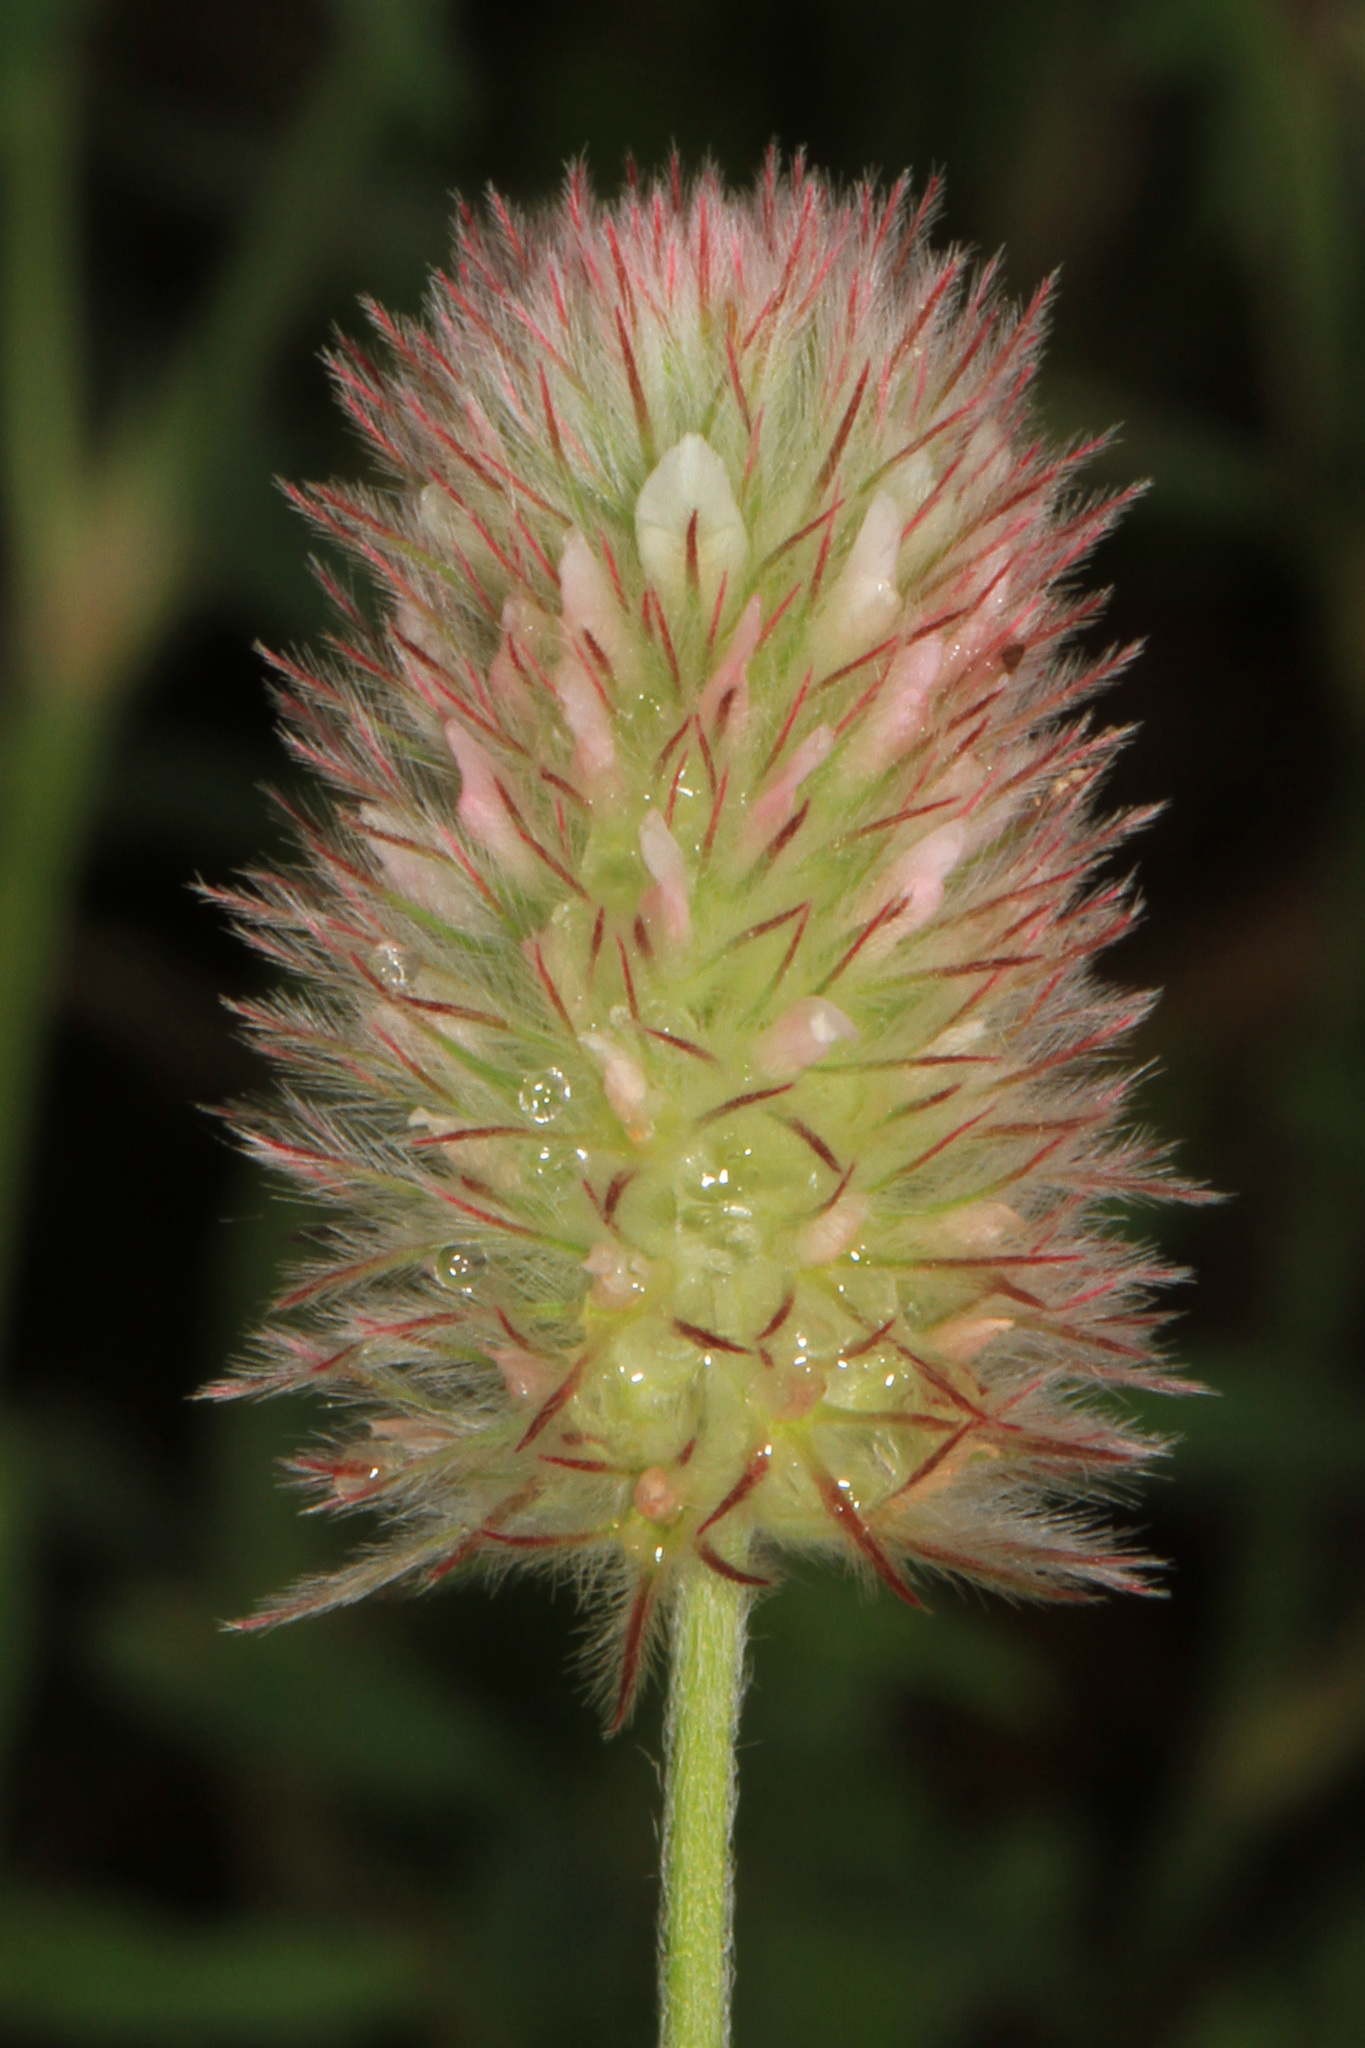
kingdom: Plantae
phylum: Tracheophyta
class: Magnoliopsida
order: Fabales
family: Fabaceae
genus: Trifolium
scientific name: Trifolium arvense
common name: Hare's-foot clover
